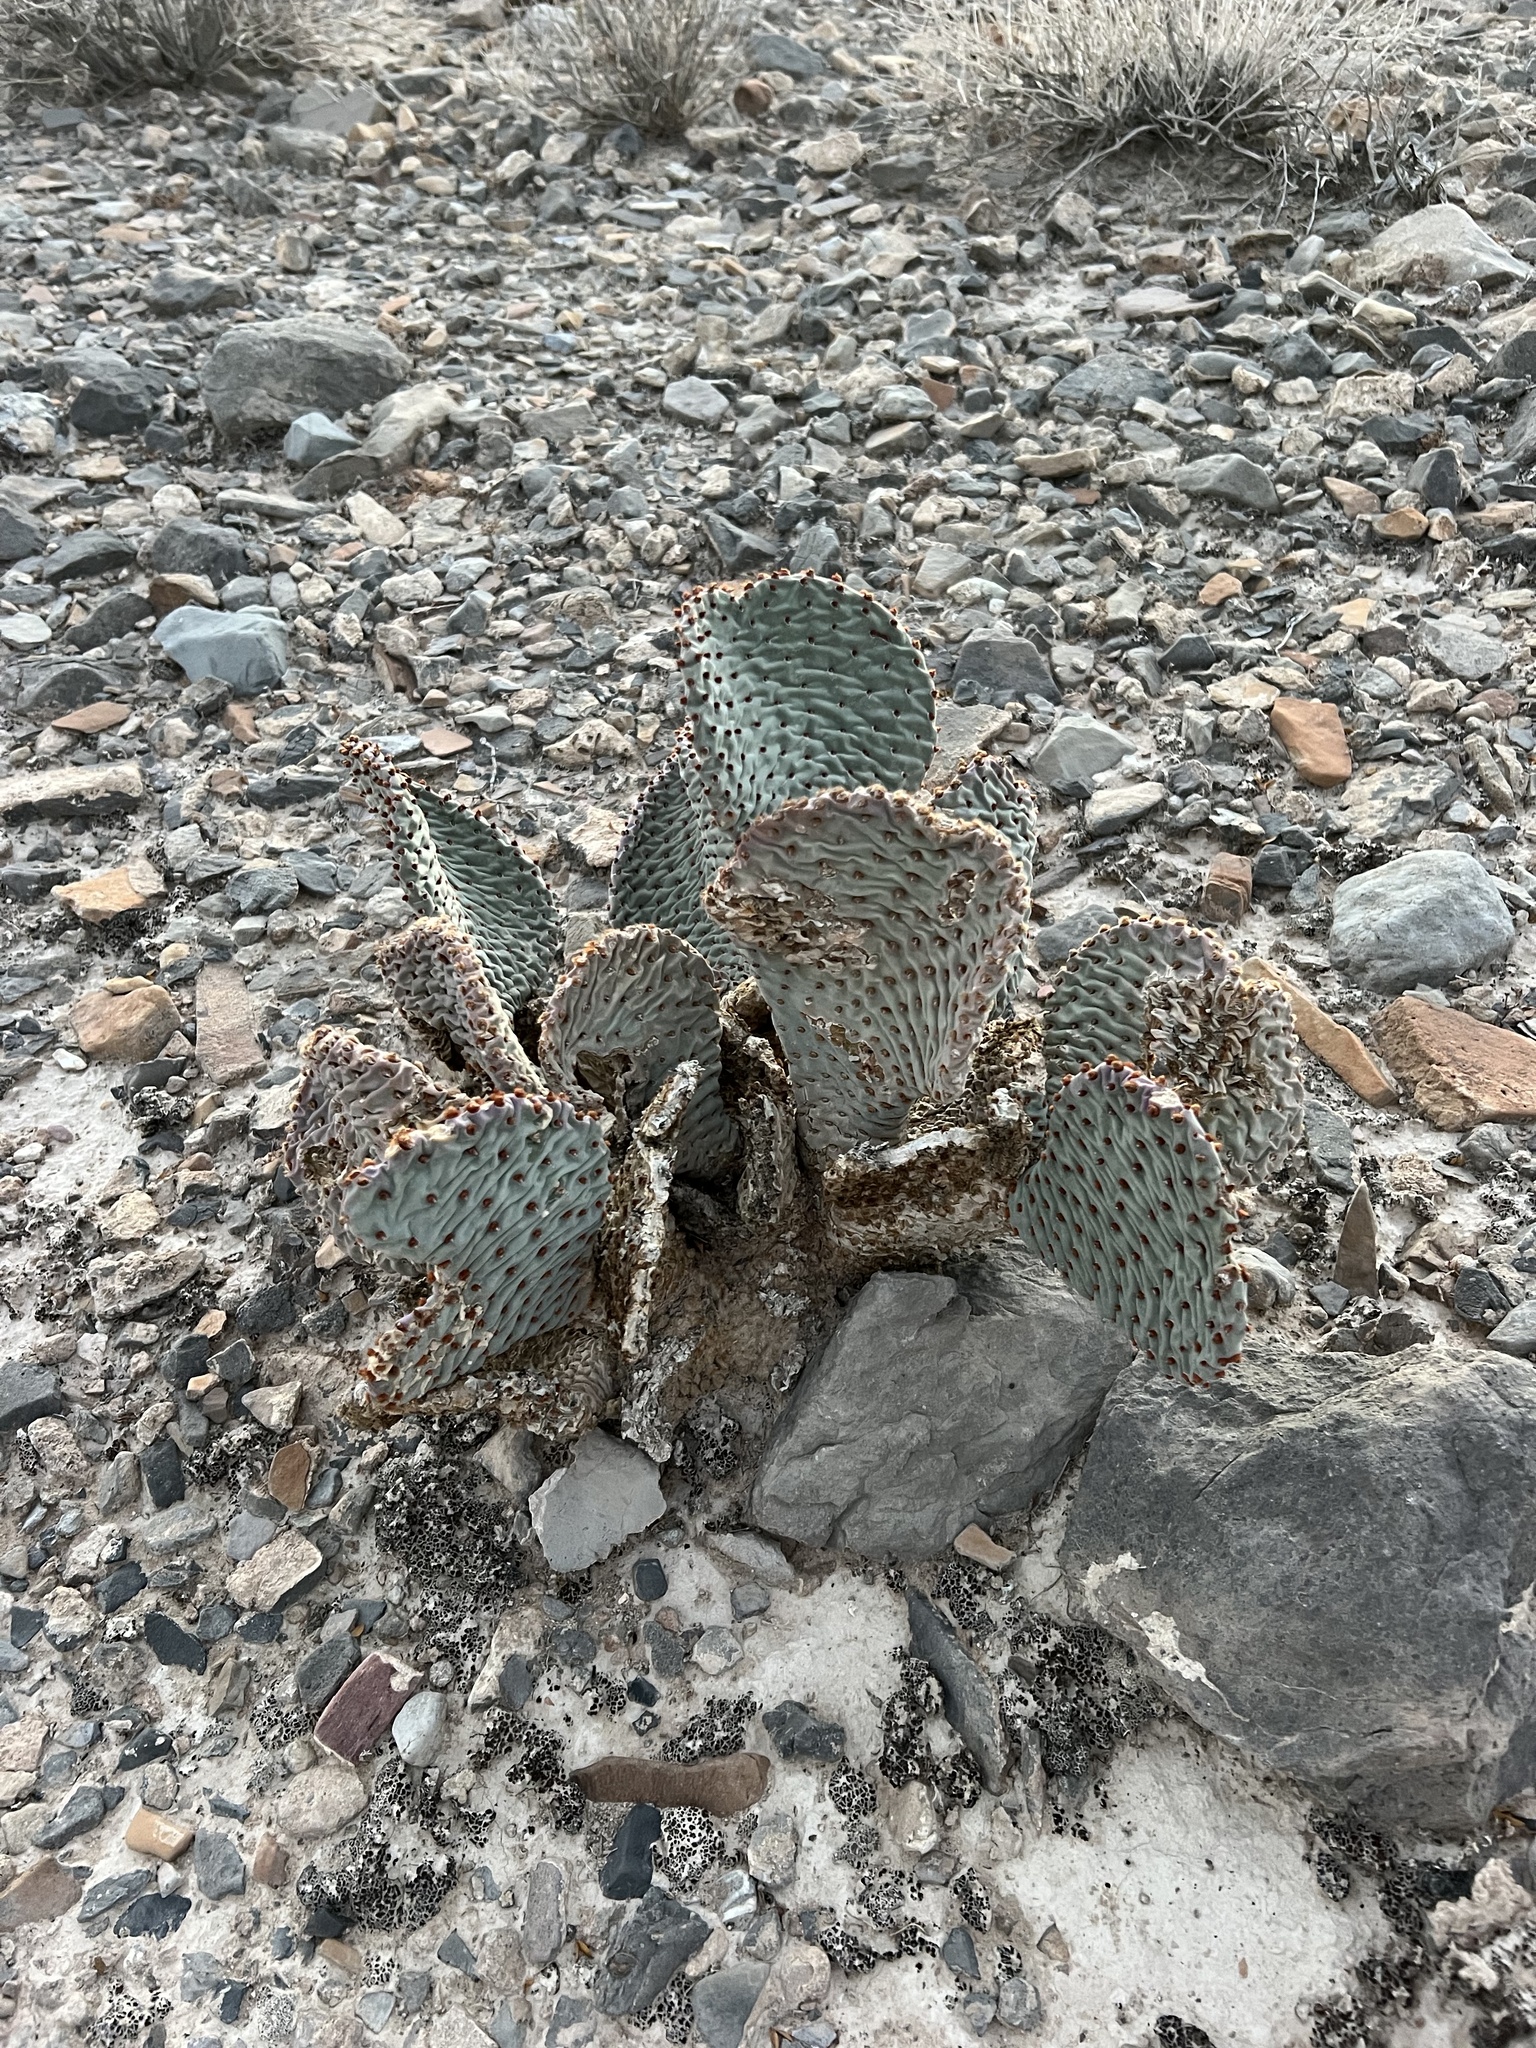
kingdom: Plantae
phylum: Tracheophyta
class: Magnoliopsida
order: Caryophyllales
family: Cactaceae
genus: Opuntia
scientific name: Opuntia basilaris
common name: Beavertail prickly-pear
